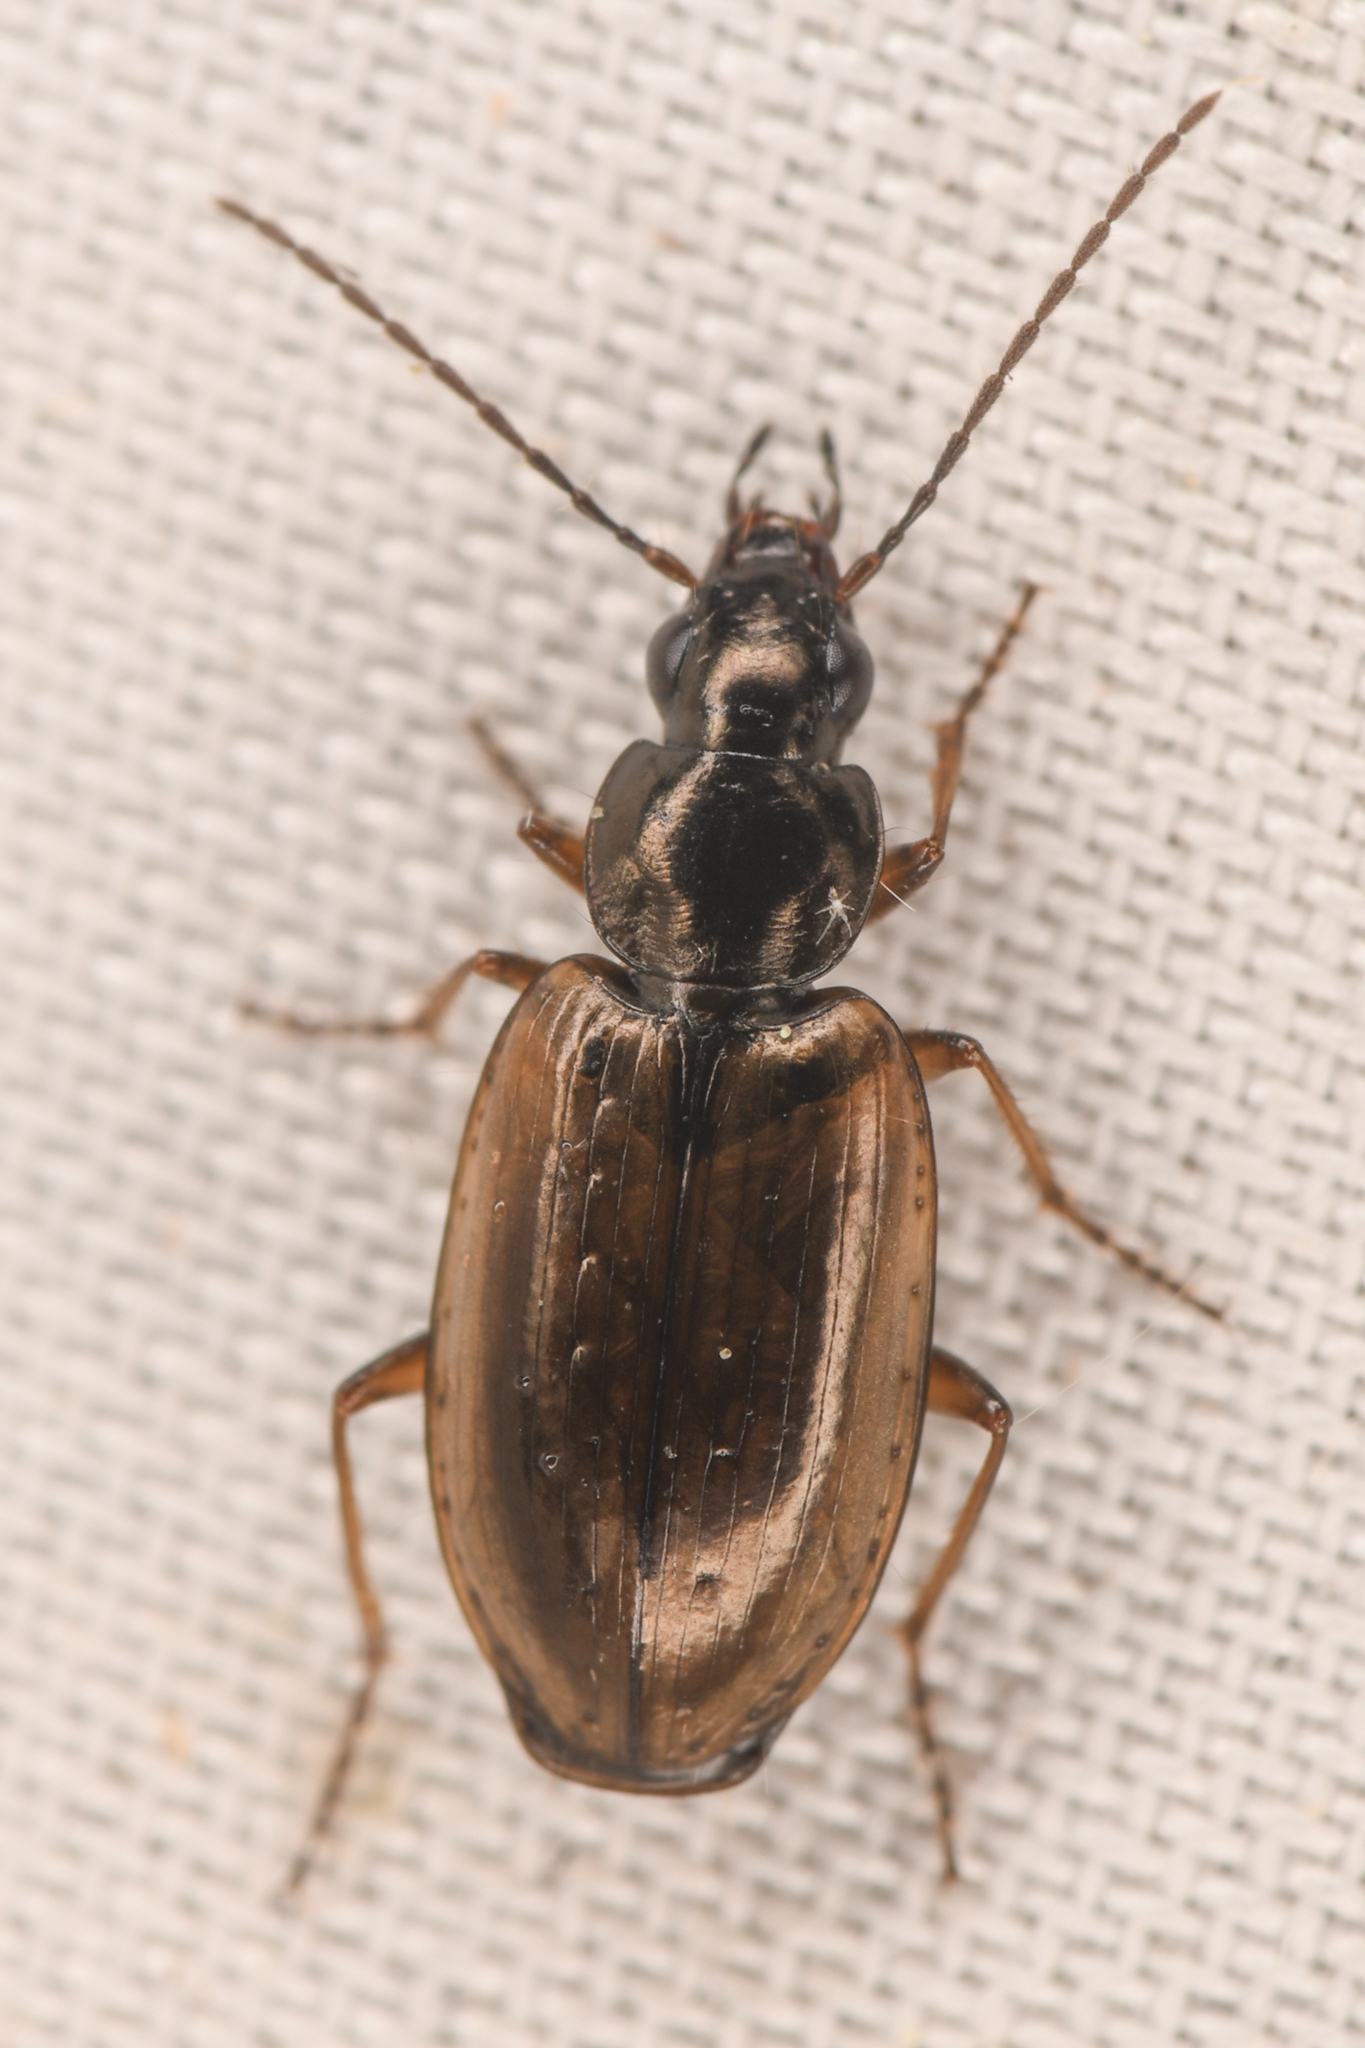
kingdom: Animalia
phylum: Arthropoda
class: Insecta
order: Coleoptera
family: Carabidae
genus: Agonum
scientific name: Agonum limbatum
